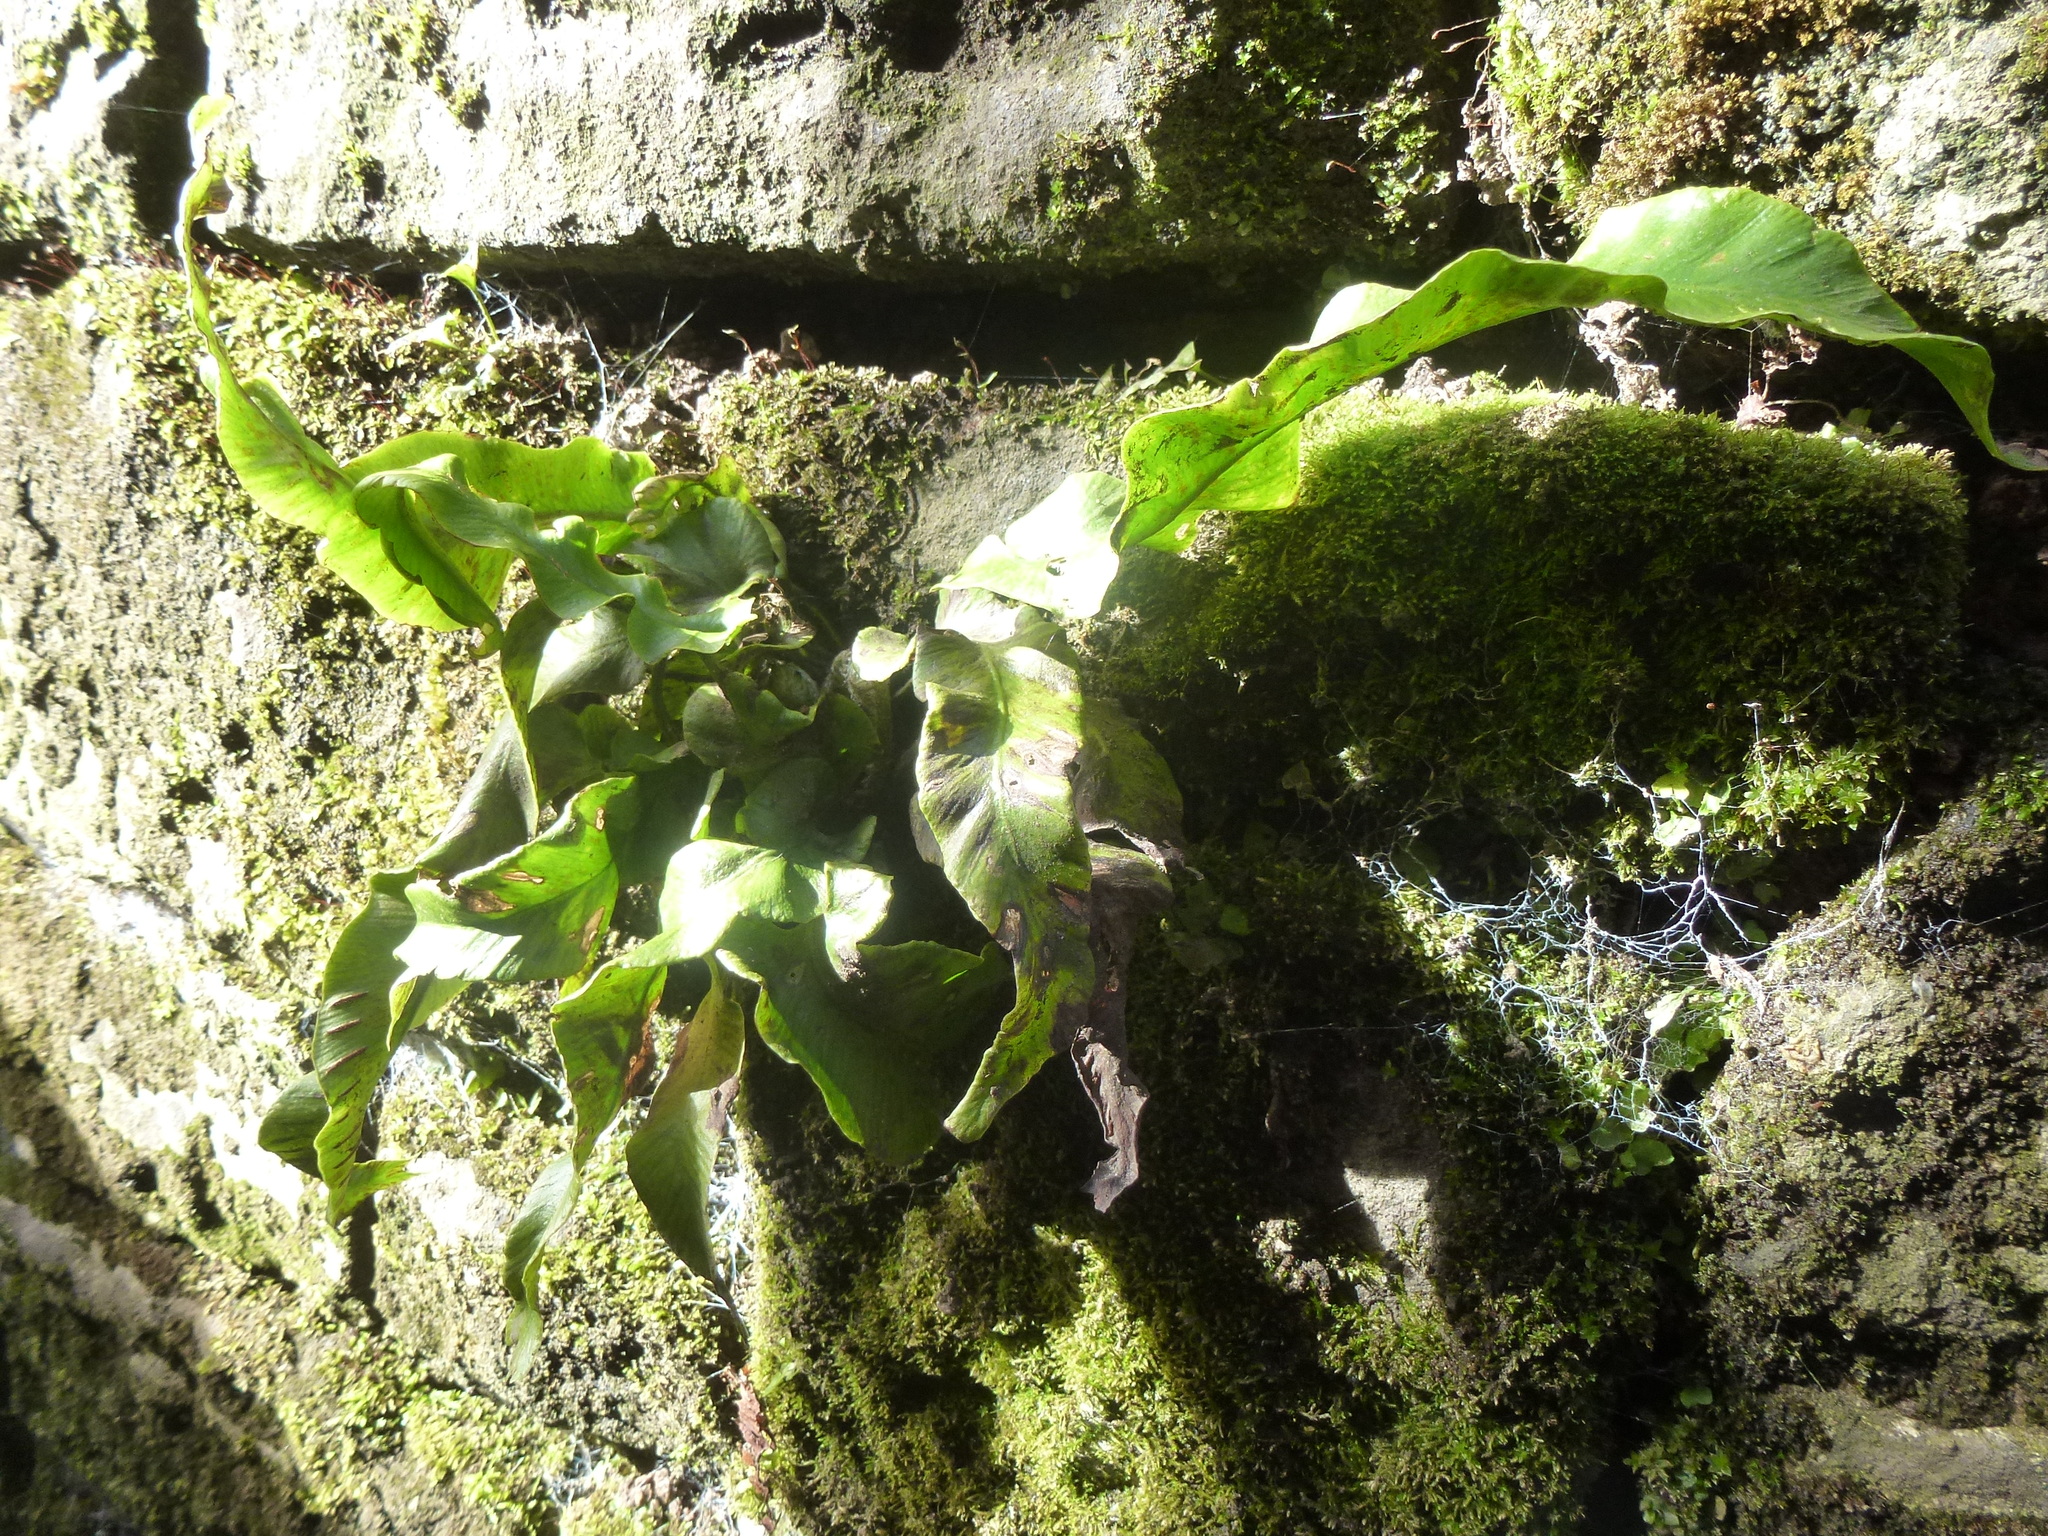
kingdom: Plantae
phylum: Tracheophyta
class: Polypodiopsida
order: Polypodiales
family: Aspleniaceae
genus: Asplenium
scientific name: Asplenium scolopendrium
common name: Hart's-tongue fern
